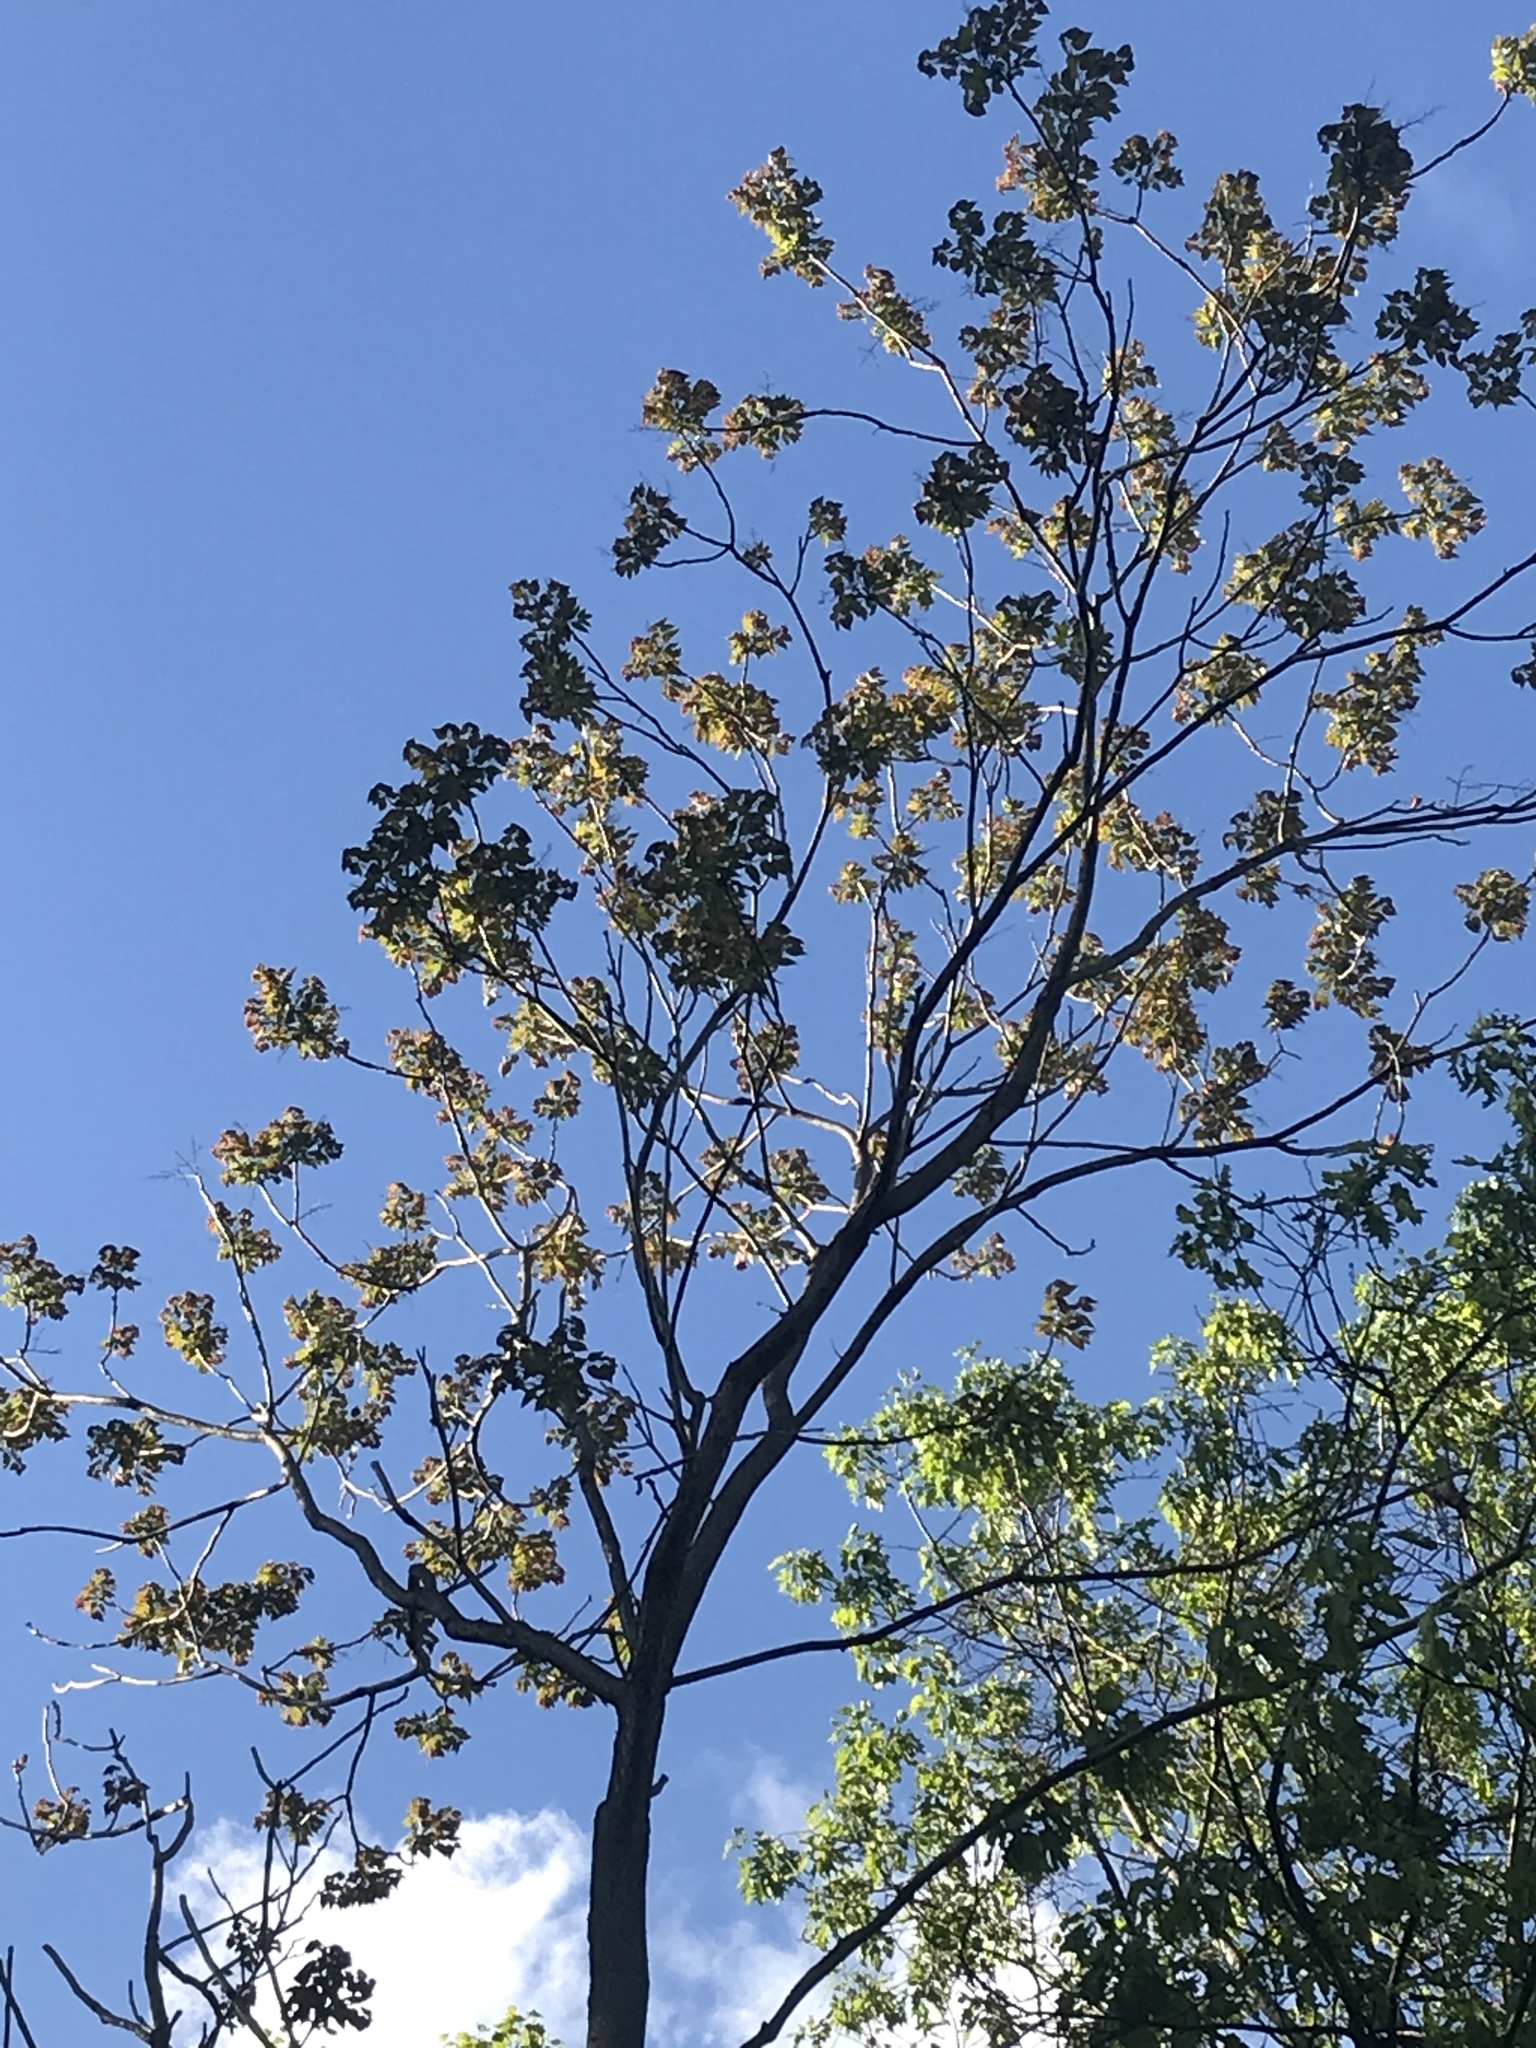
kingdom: Plantae
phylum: Tracheophyta
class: Magnoliopsida
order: Sapindales
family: Simaroubaceae
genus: Ailanthus
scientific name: Ailanthus altissima
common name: Tree-of-heaven
